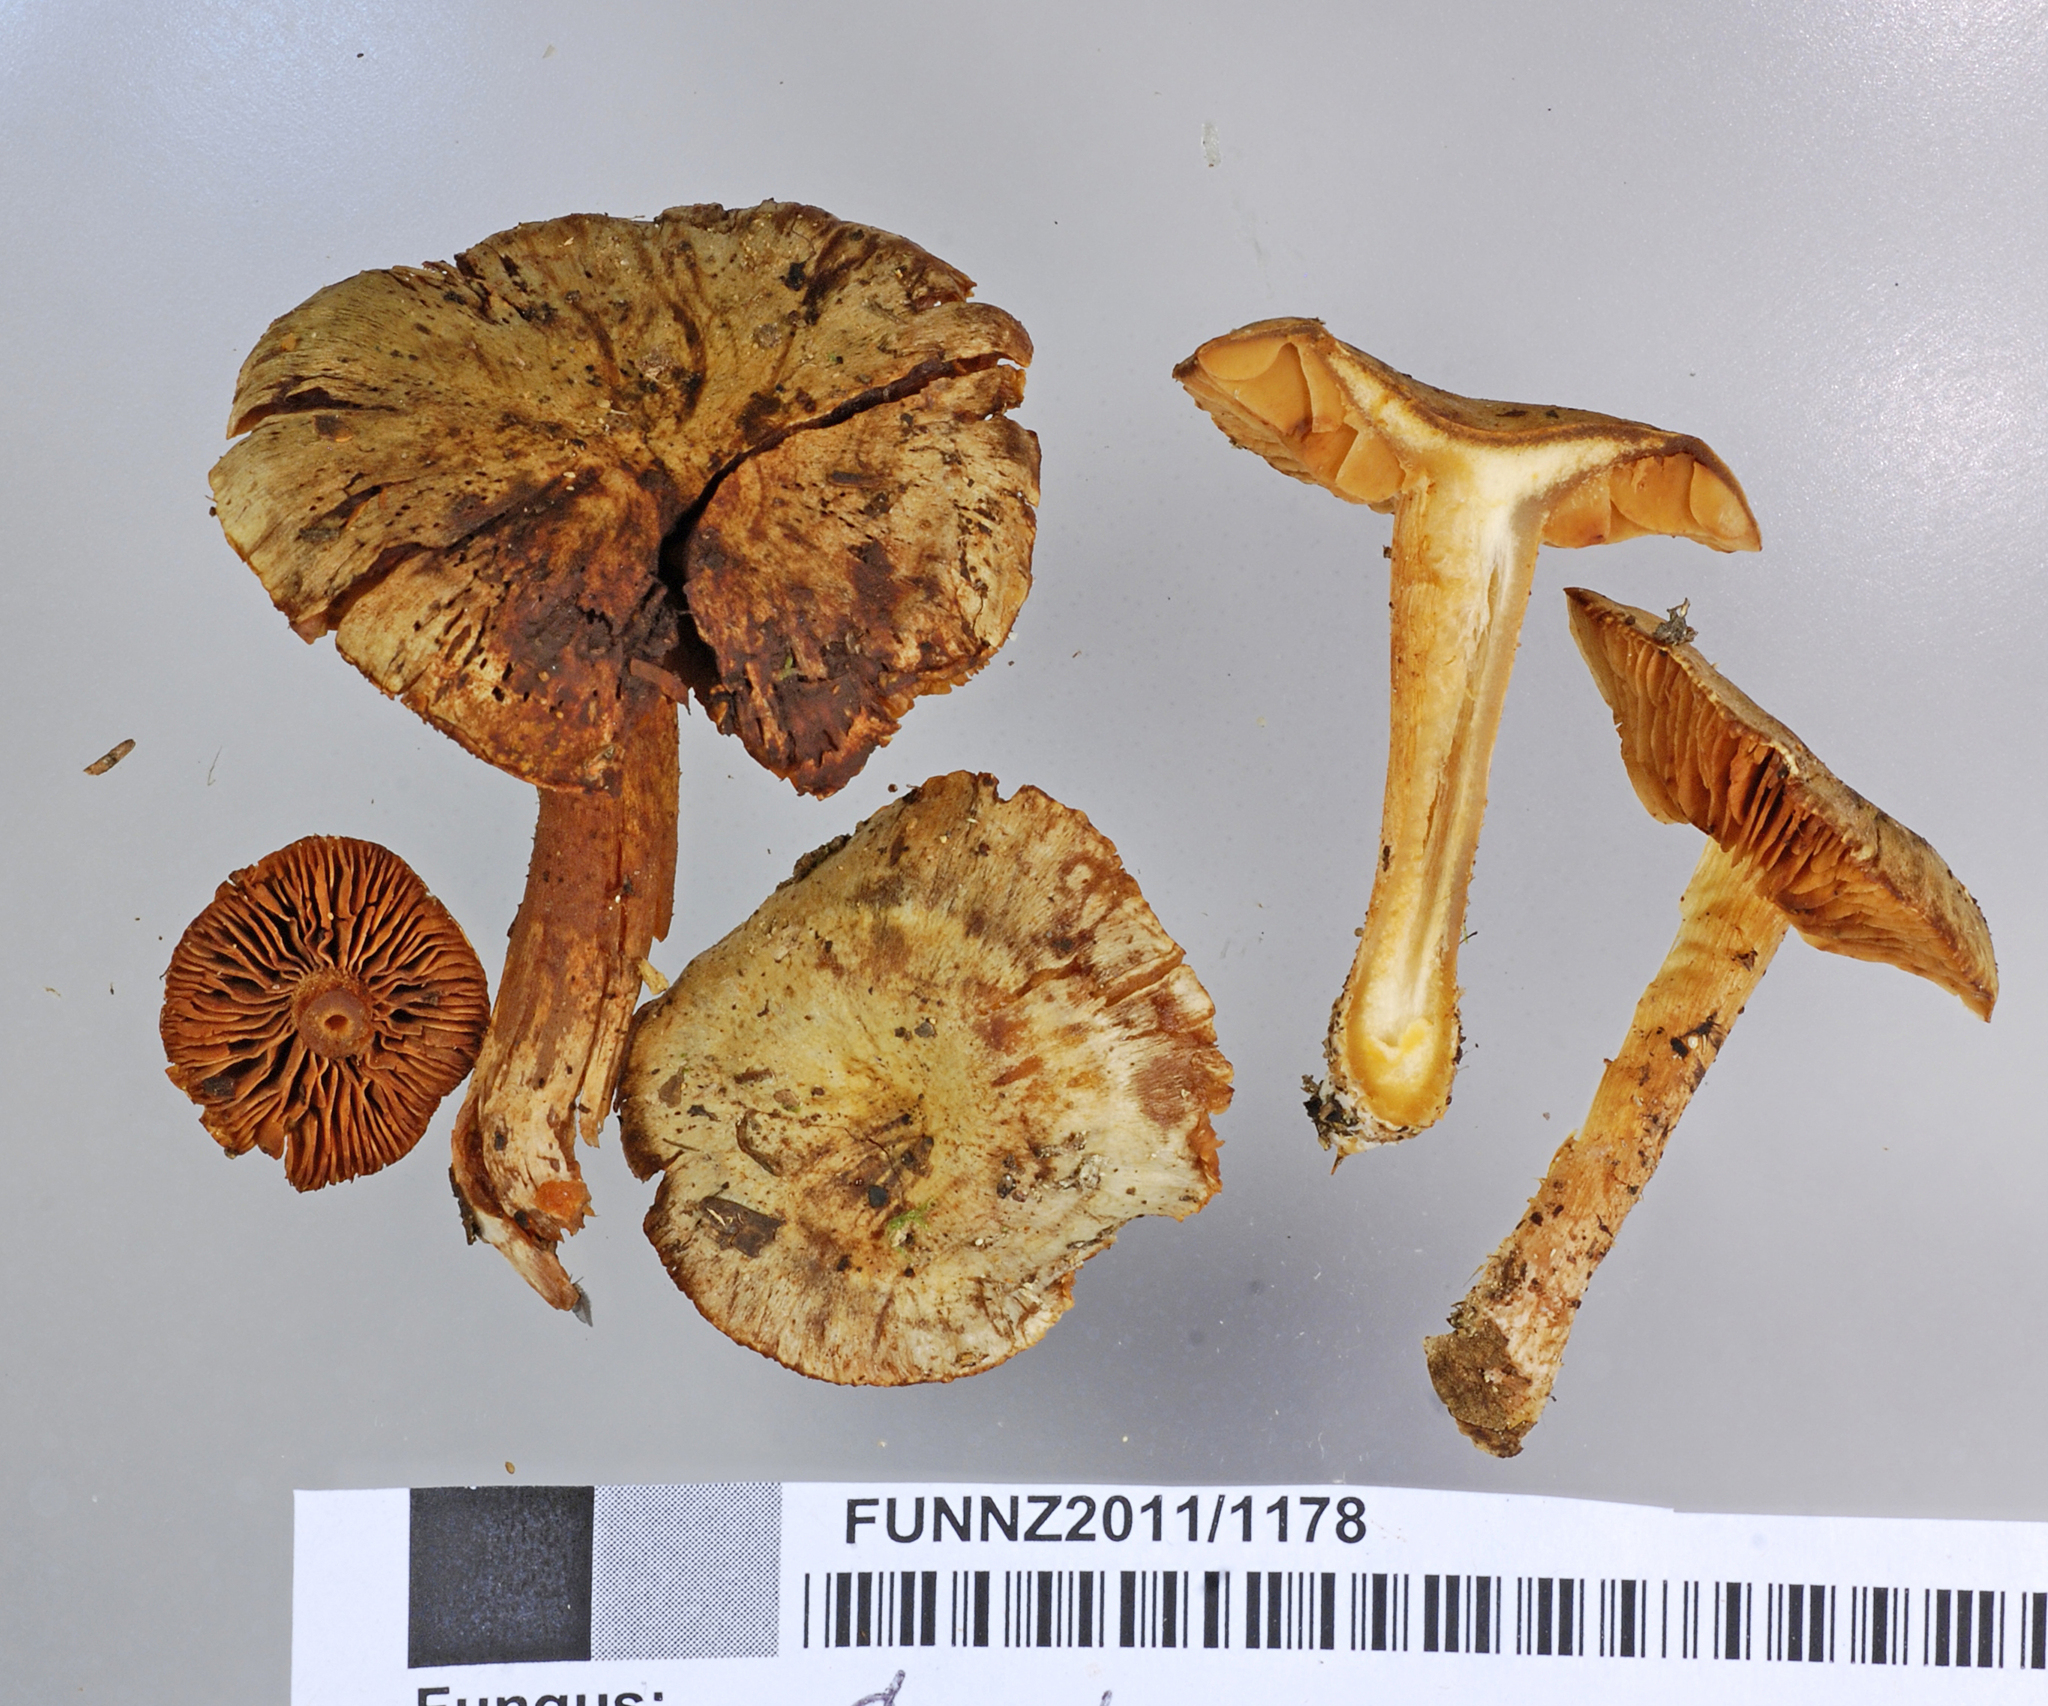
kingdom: Fungi
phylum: Basidiomycota
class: Agaricomycetes
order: Agaricales
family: Cortinariaceae
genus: Cystinarius
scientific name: Cystinarius subgemmeus
